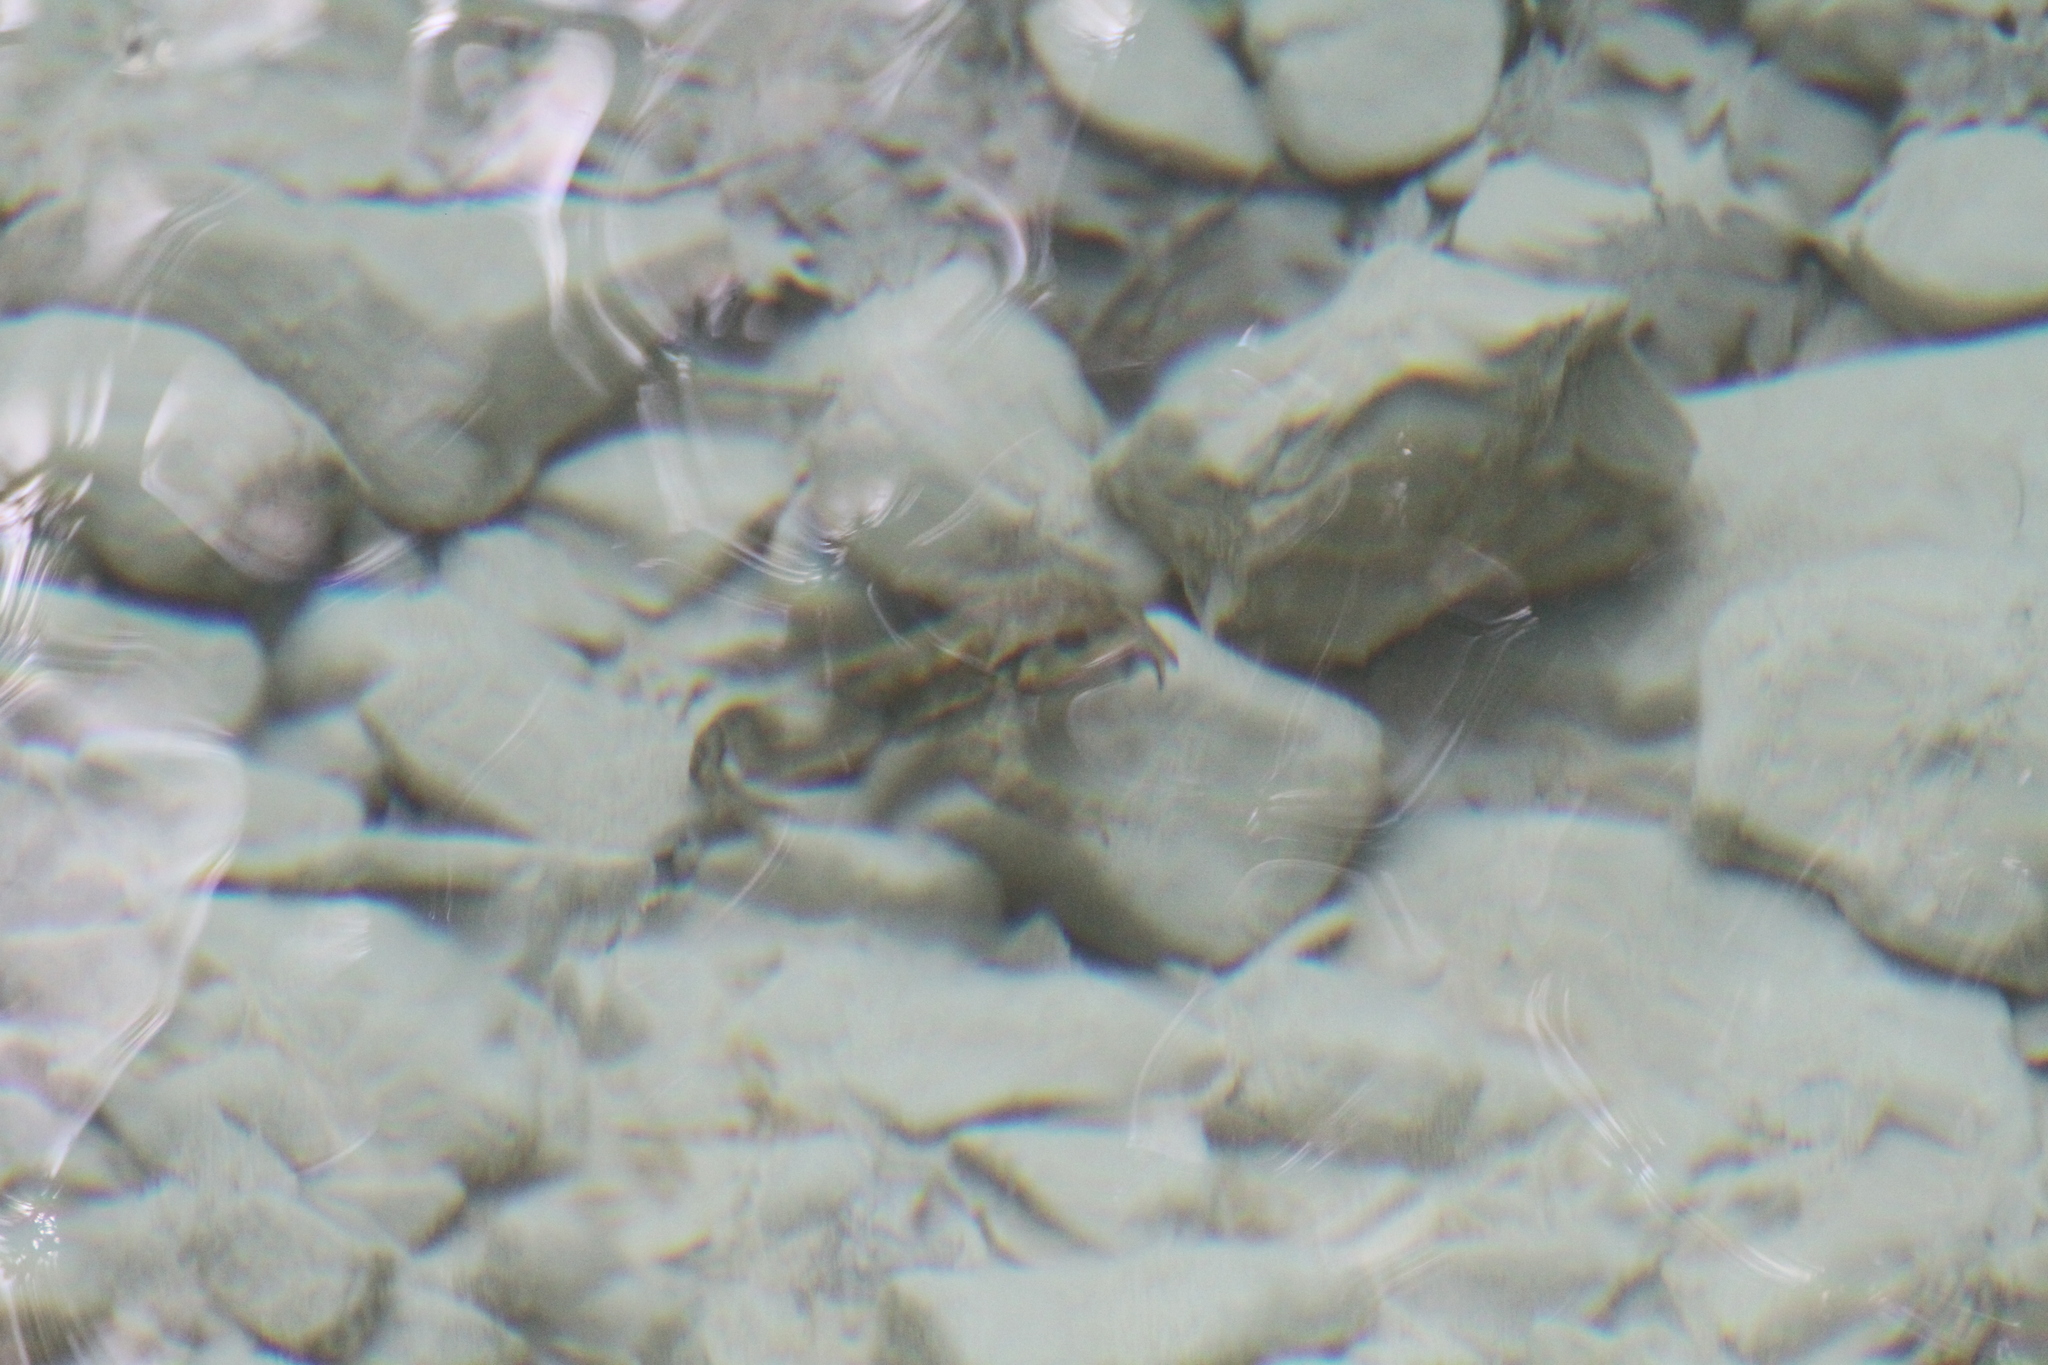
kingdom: Animalia
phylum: Chordata
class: Amphibia
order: Anura
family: Bufonidae
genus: Bufo
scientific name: Bufo spinosus
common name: Western common toad
